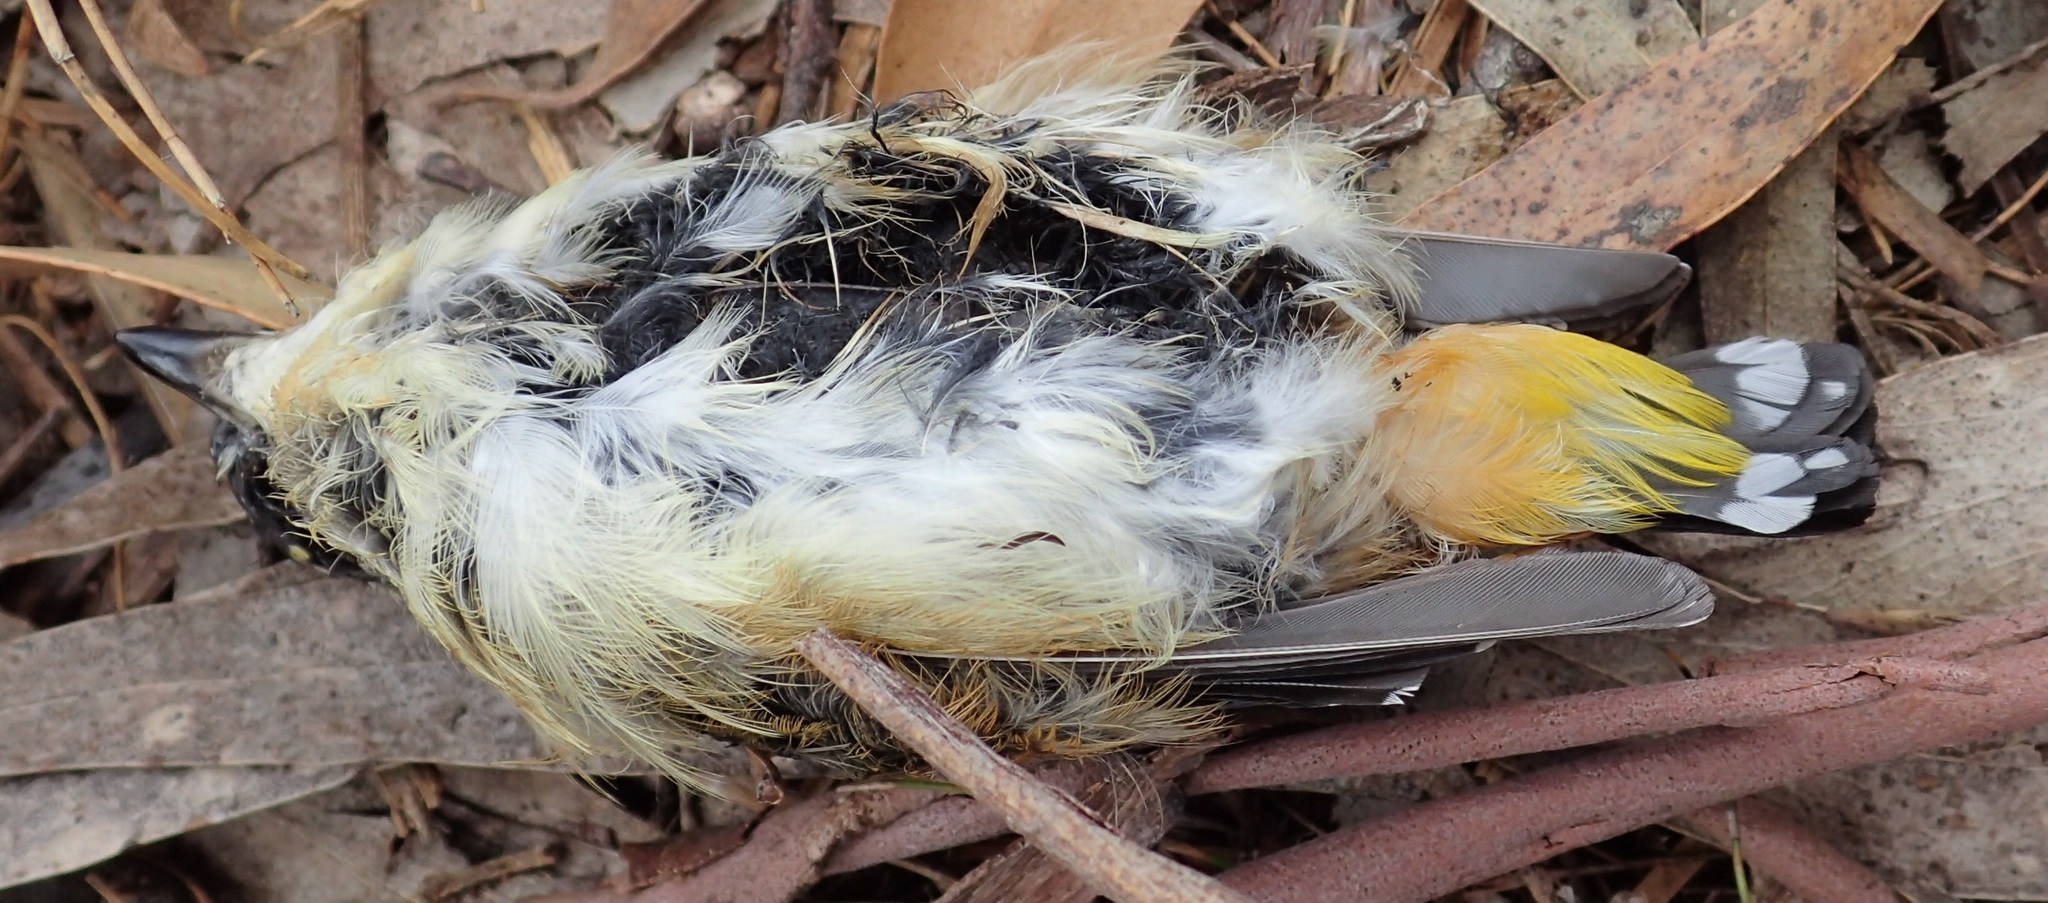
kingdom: Animalia
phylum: Chordata
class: Aves
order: Passeriformes
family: Pardalotidae
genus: Pardalotus
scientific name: Pardalotus punctatus
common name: Spotted pardalote
